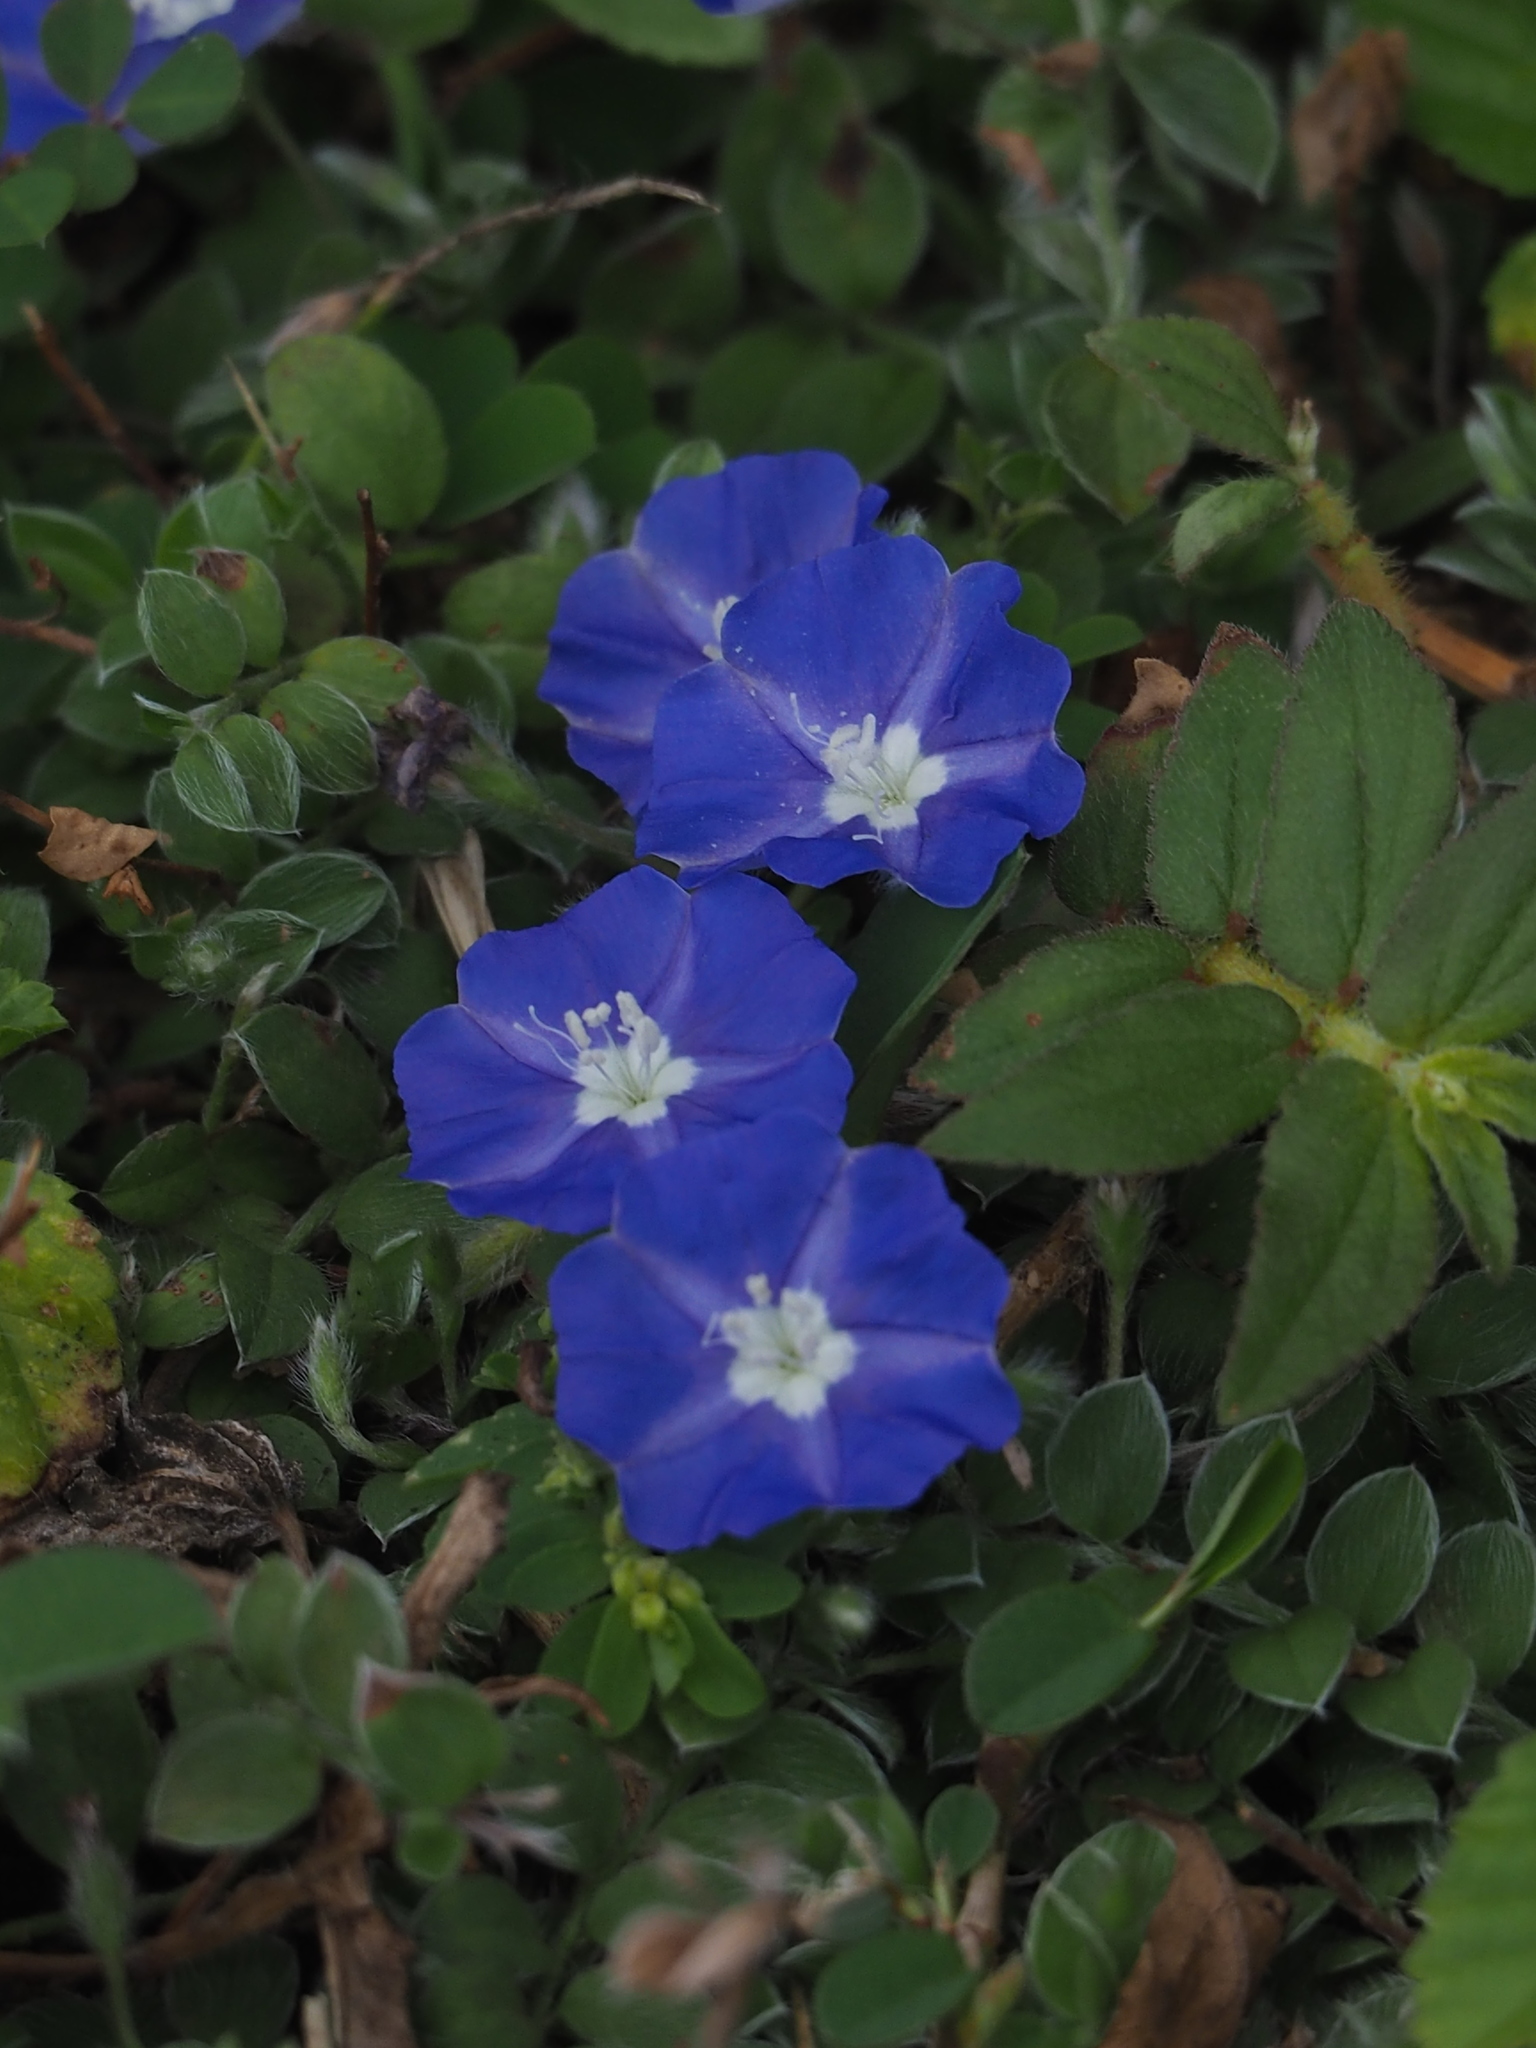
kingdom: Plantae
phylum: Tracheophyta
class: Magnoliopsida
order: Solanales
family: Convolvulaceae
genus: Evolvulus
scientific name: Evolvulus alsinoides
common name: Slender dwarf morning-glory
